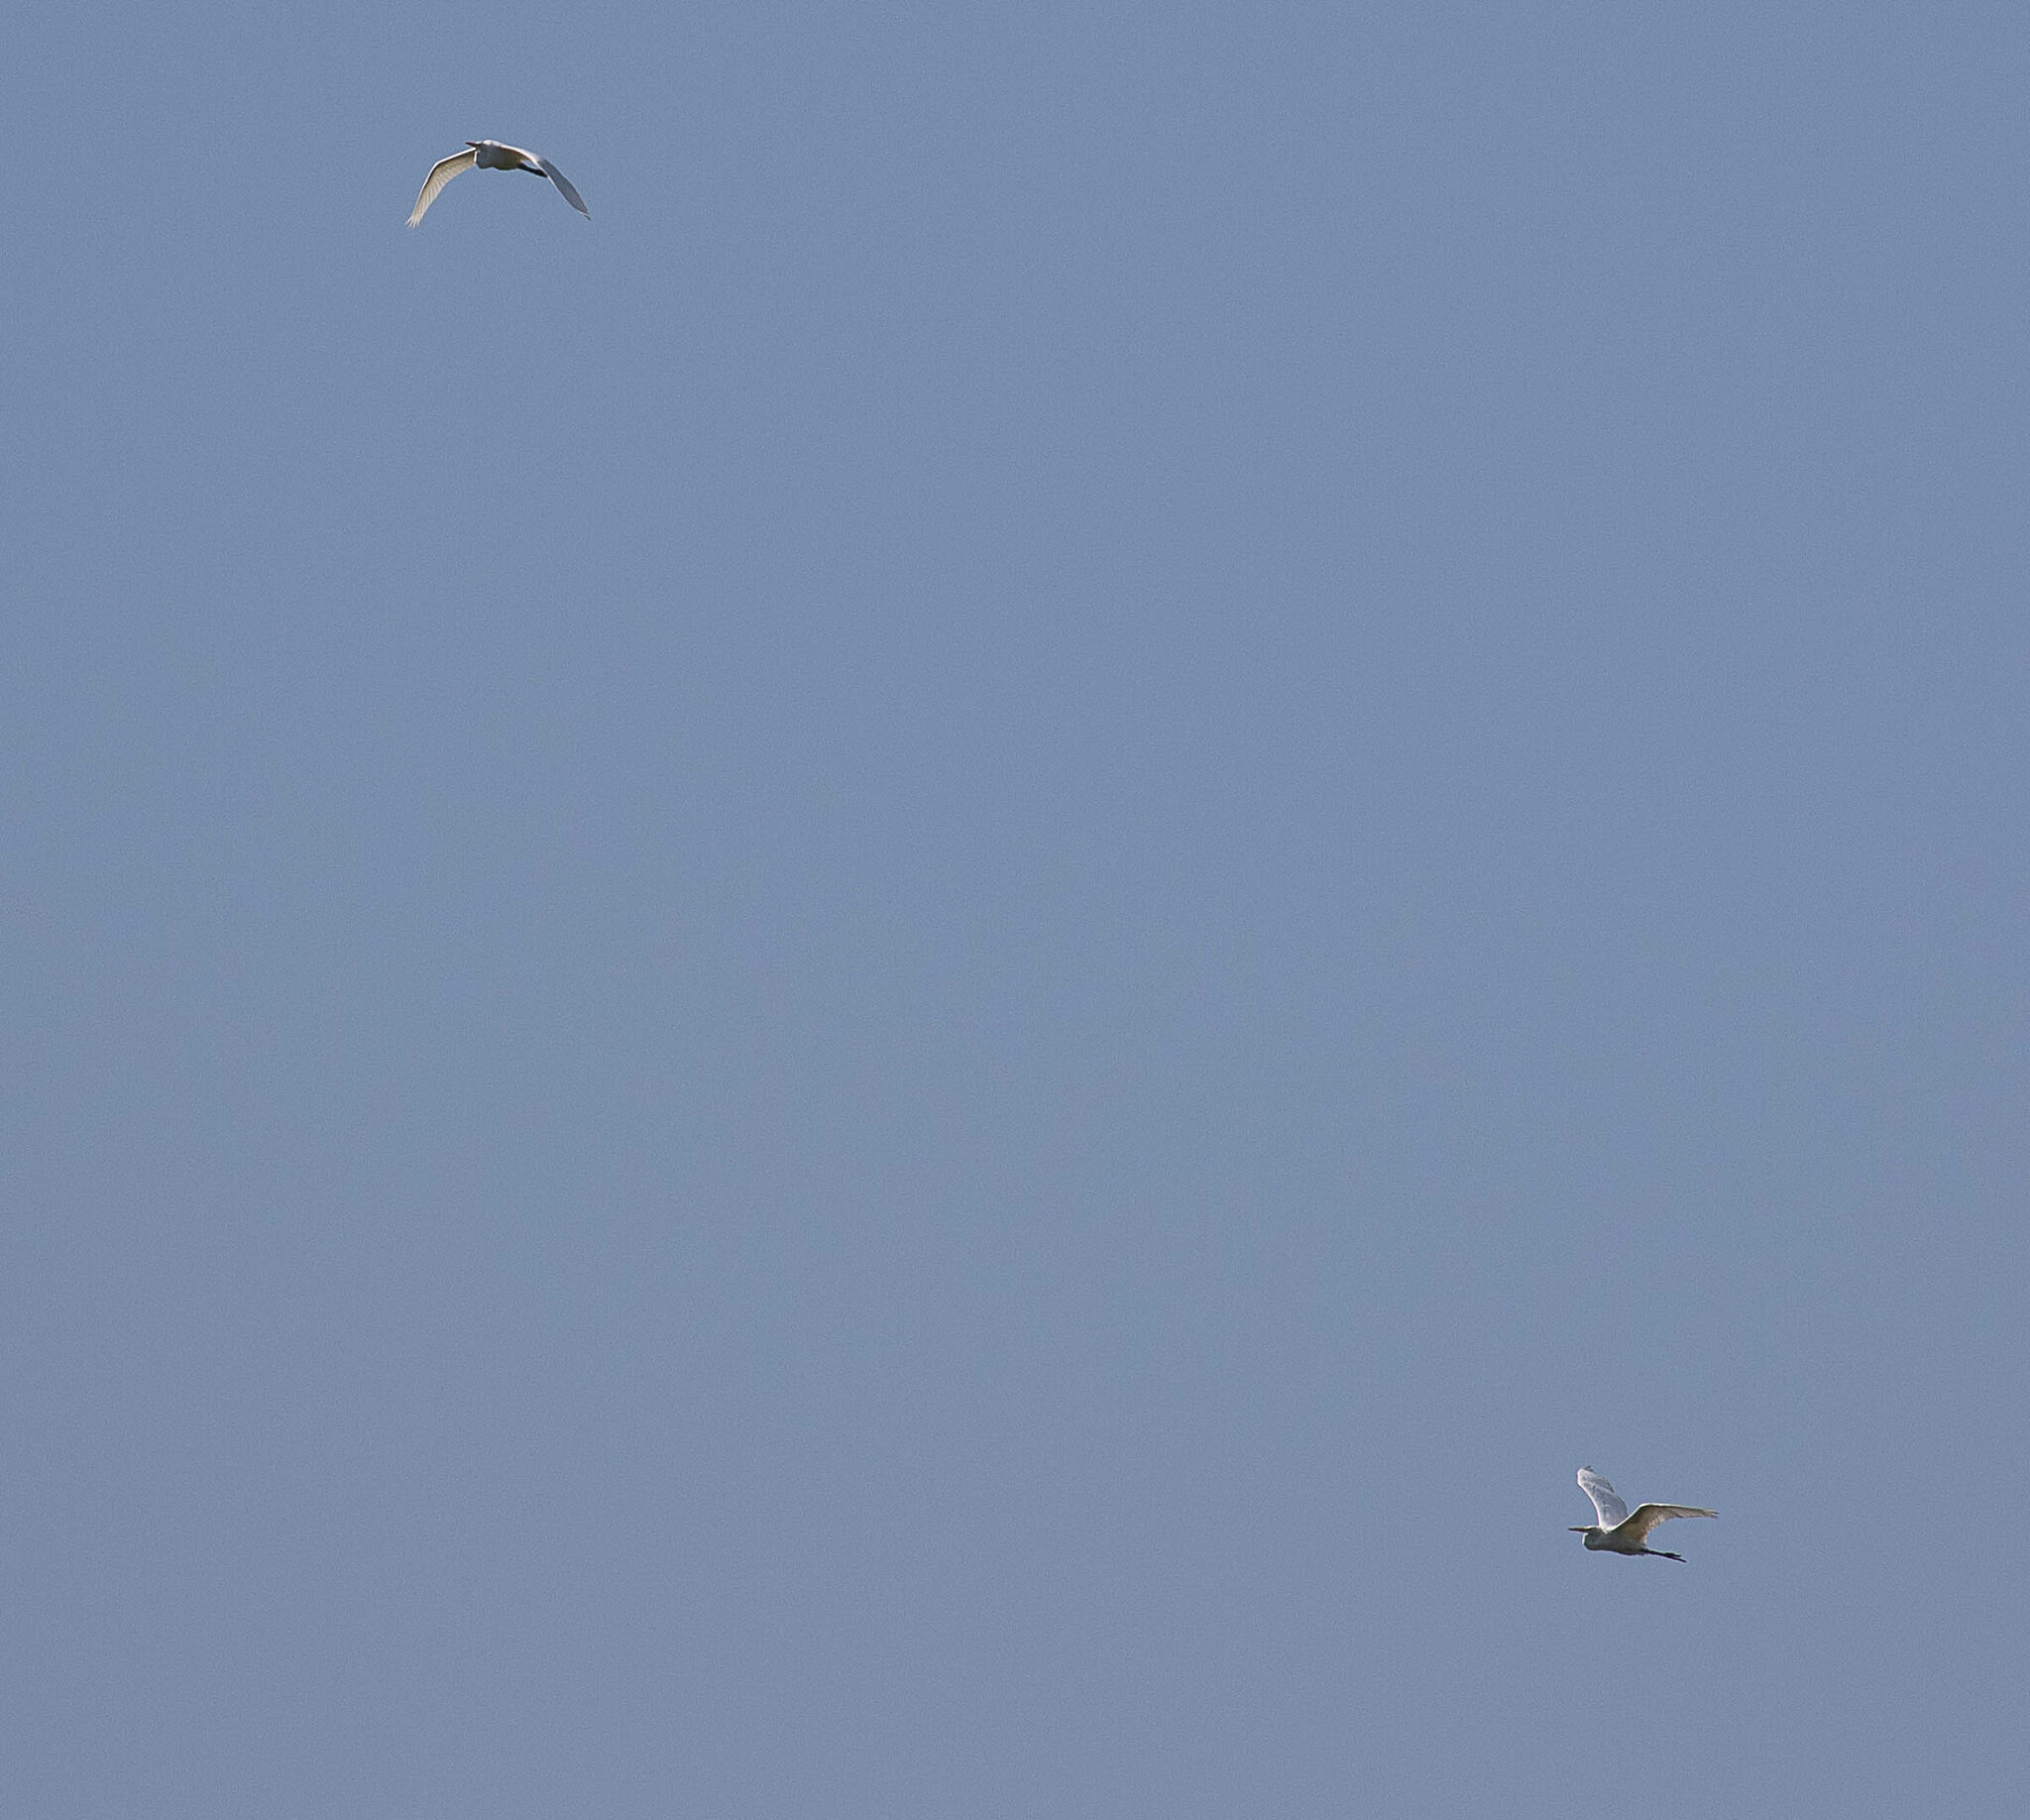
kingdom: Animalia
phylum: Chordata
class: Aves
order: Pelecaniformes
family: Ardeidae
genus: Ardea
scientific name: Ardea alba
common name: Great egret
